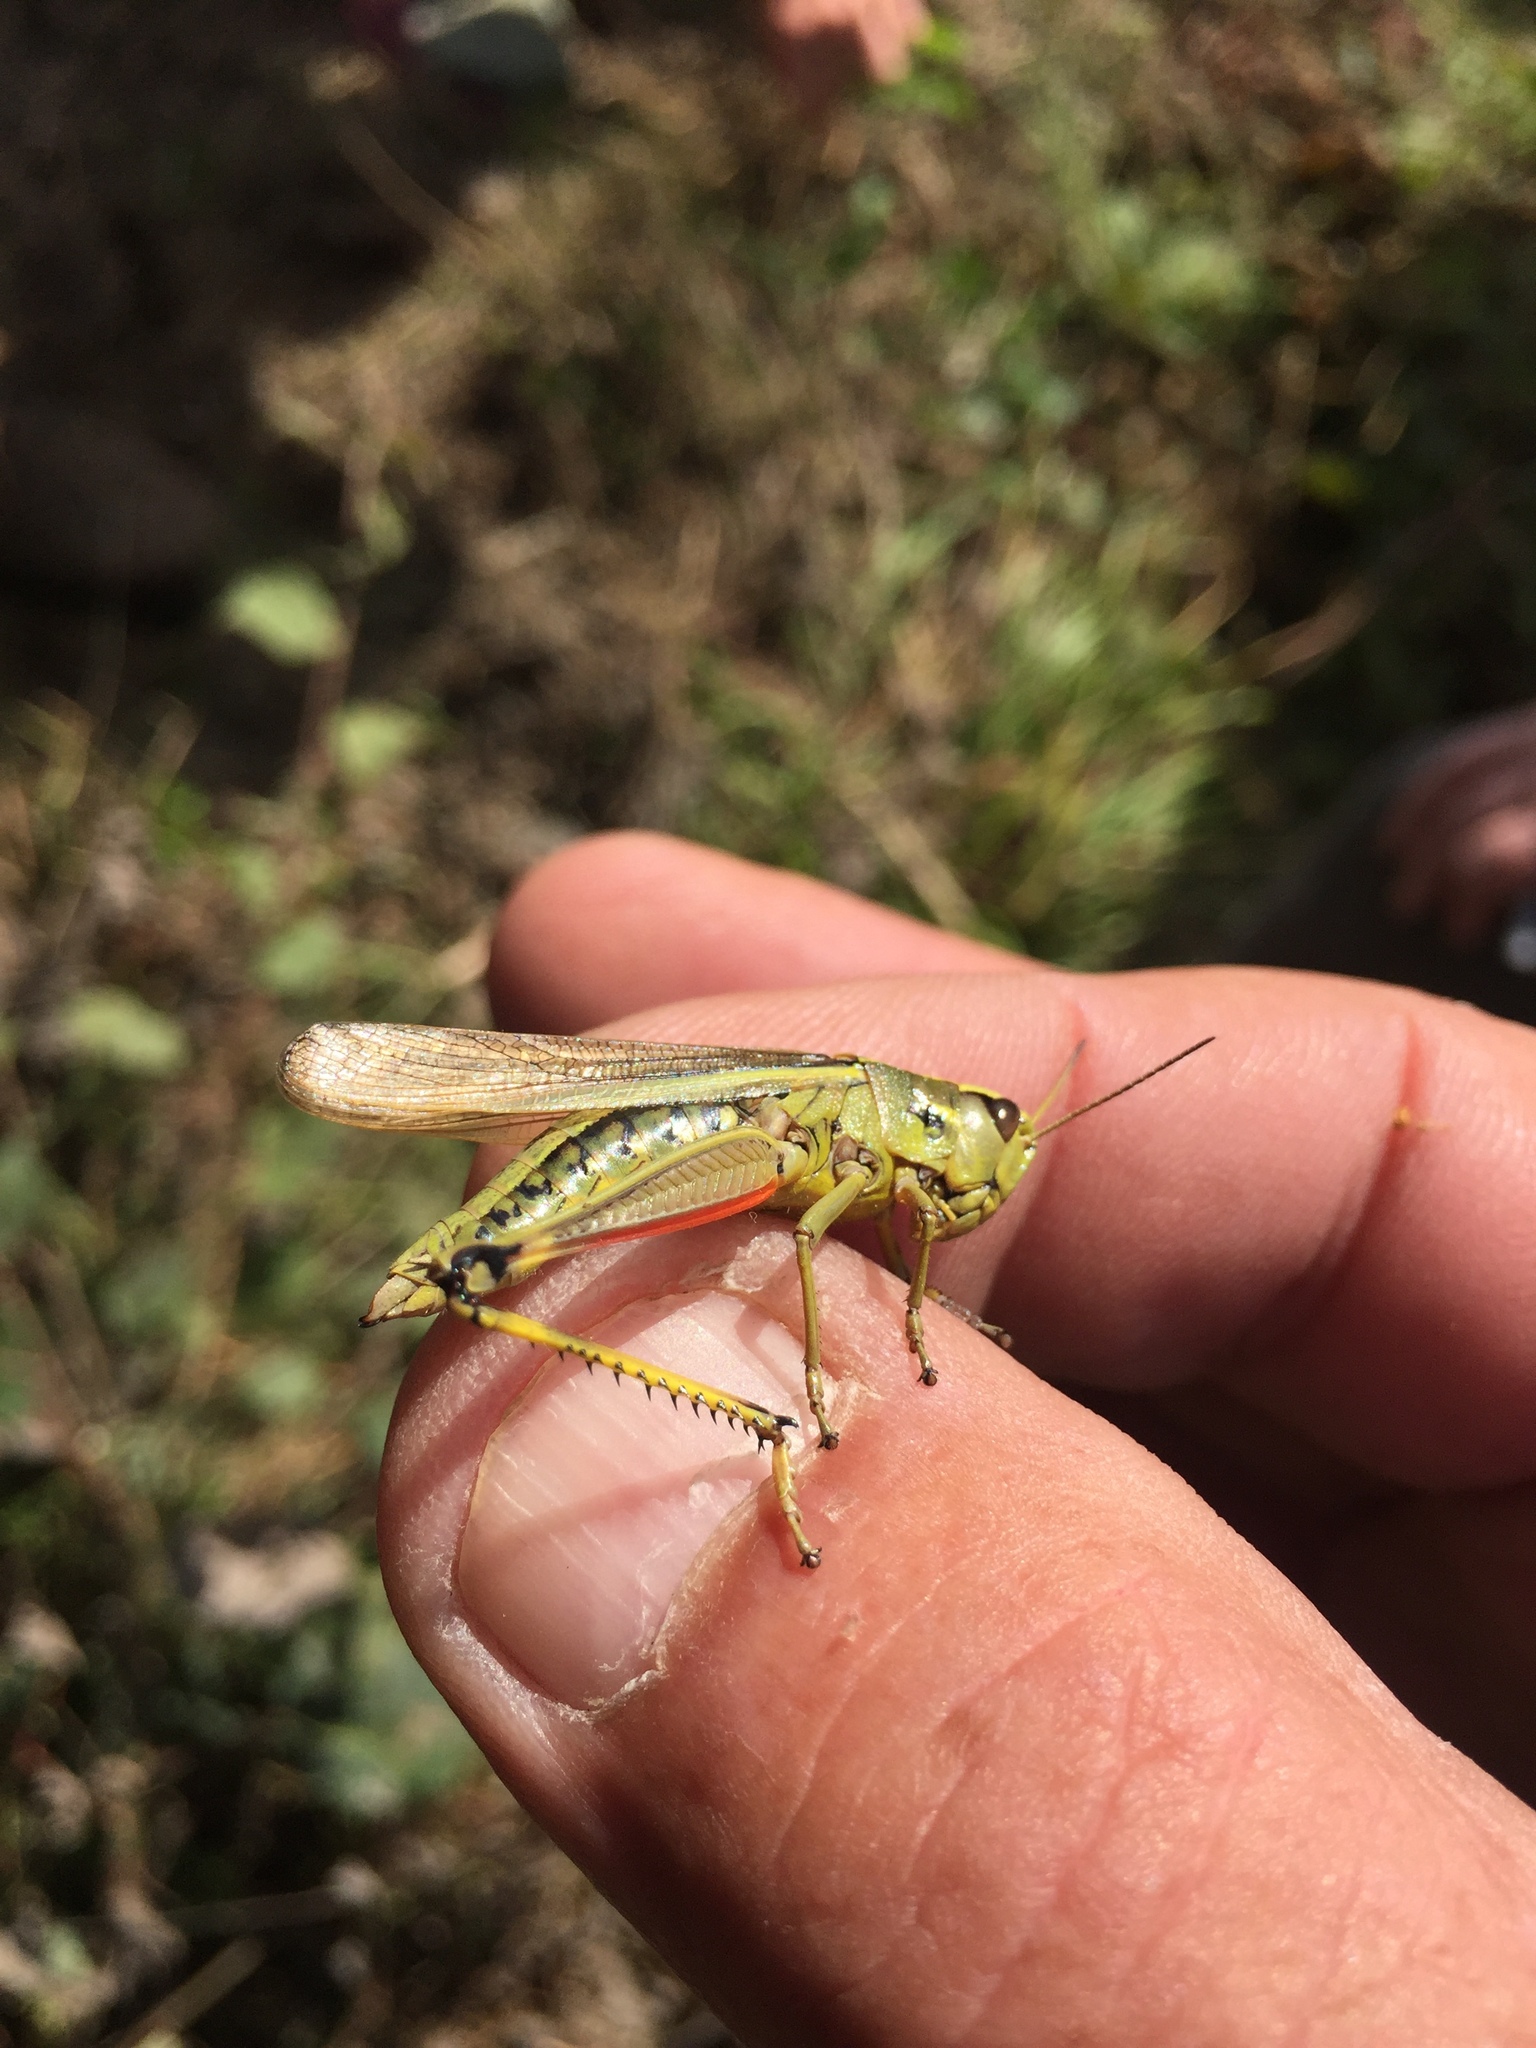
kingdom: Animalia
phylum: Arthropoda
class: Insecta
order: Orthoptera
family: Acrididae
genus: Stethophyma
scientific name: Stethophyma grossum
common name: Large marsh grasshopper
